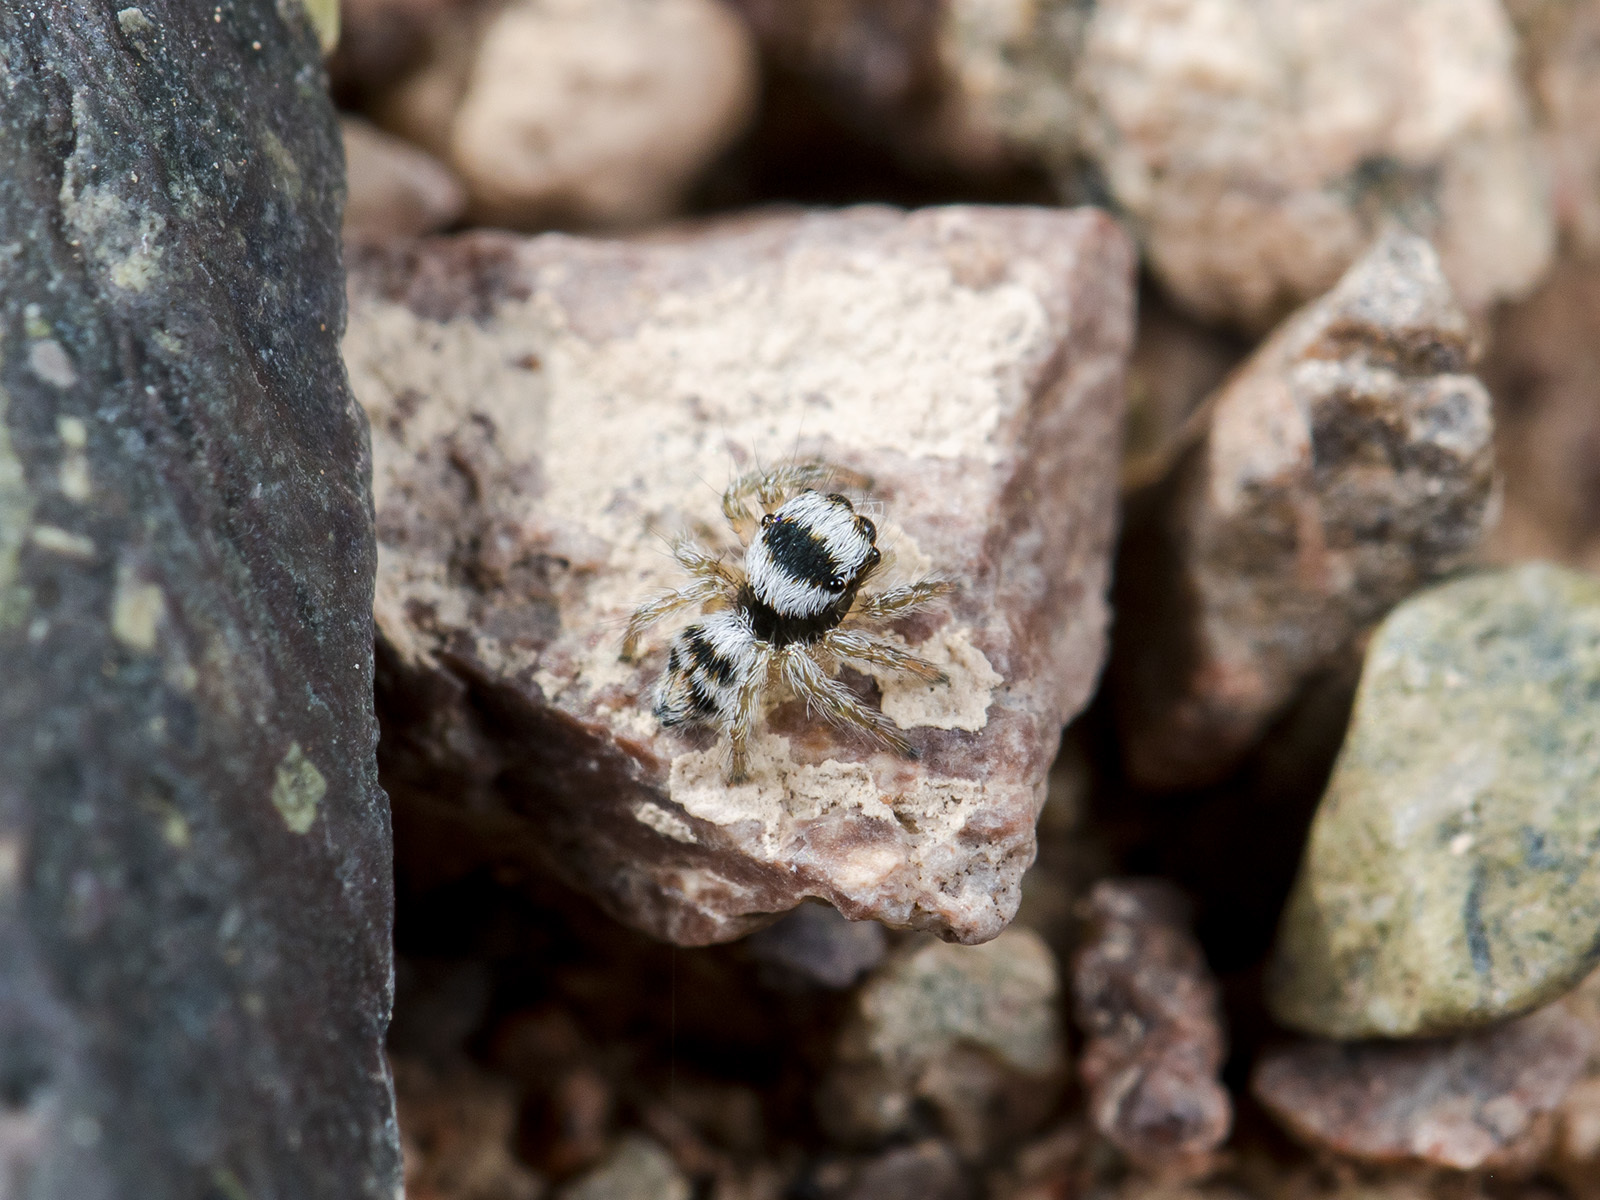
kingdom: Animalia
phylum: Arthropoda
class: Arachnida
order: Araneae
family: Salticidae
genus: Philaeus
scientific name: Philaeus chrysops
